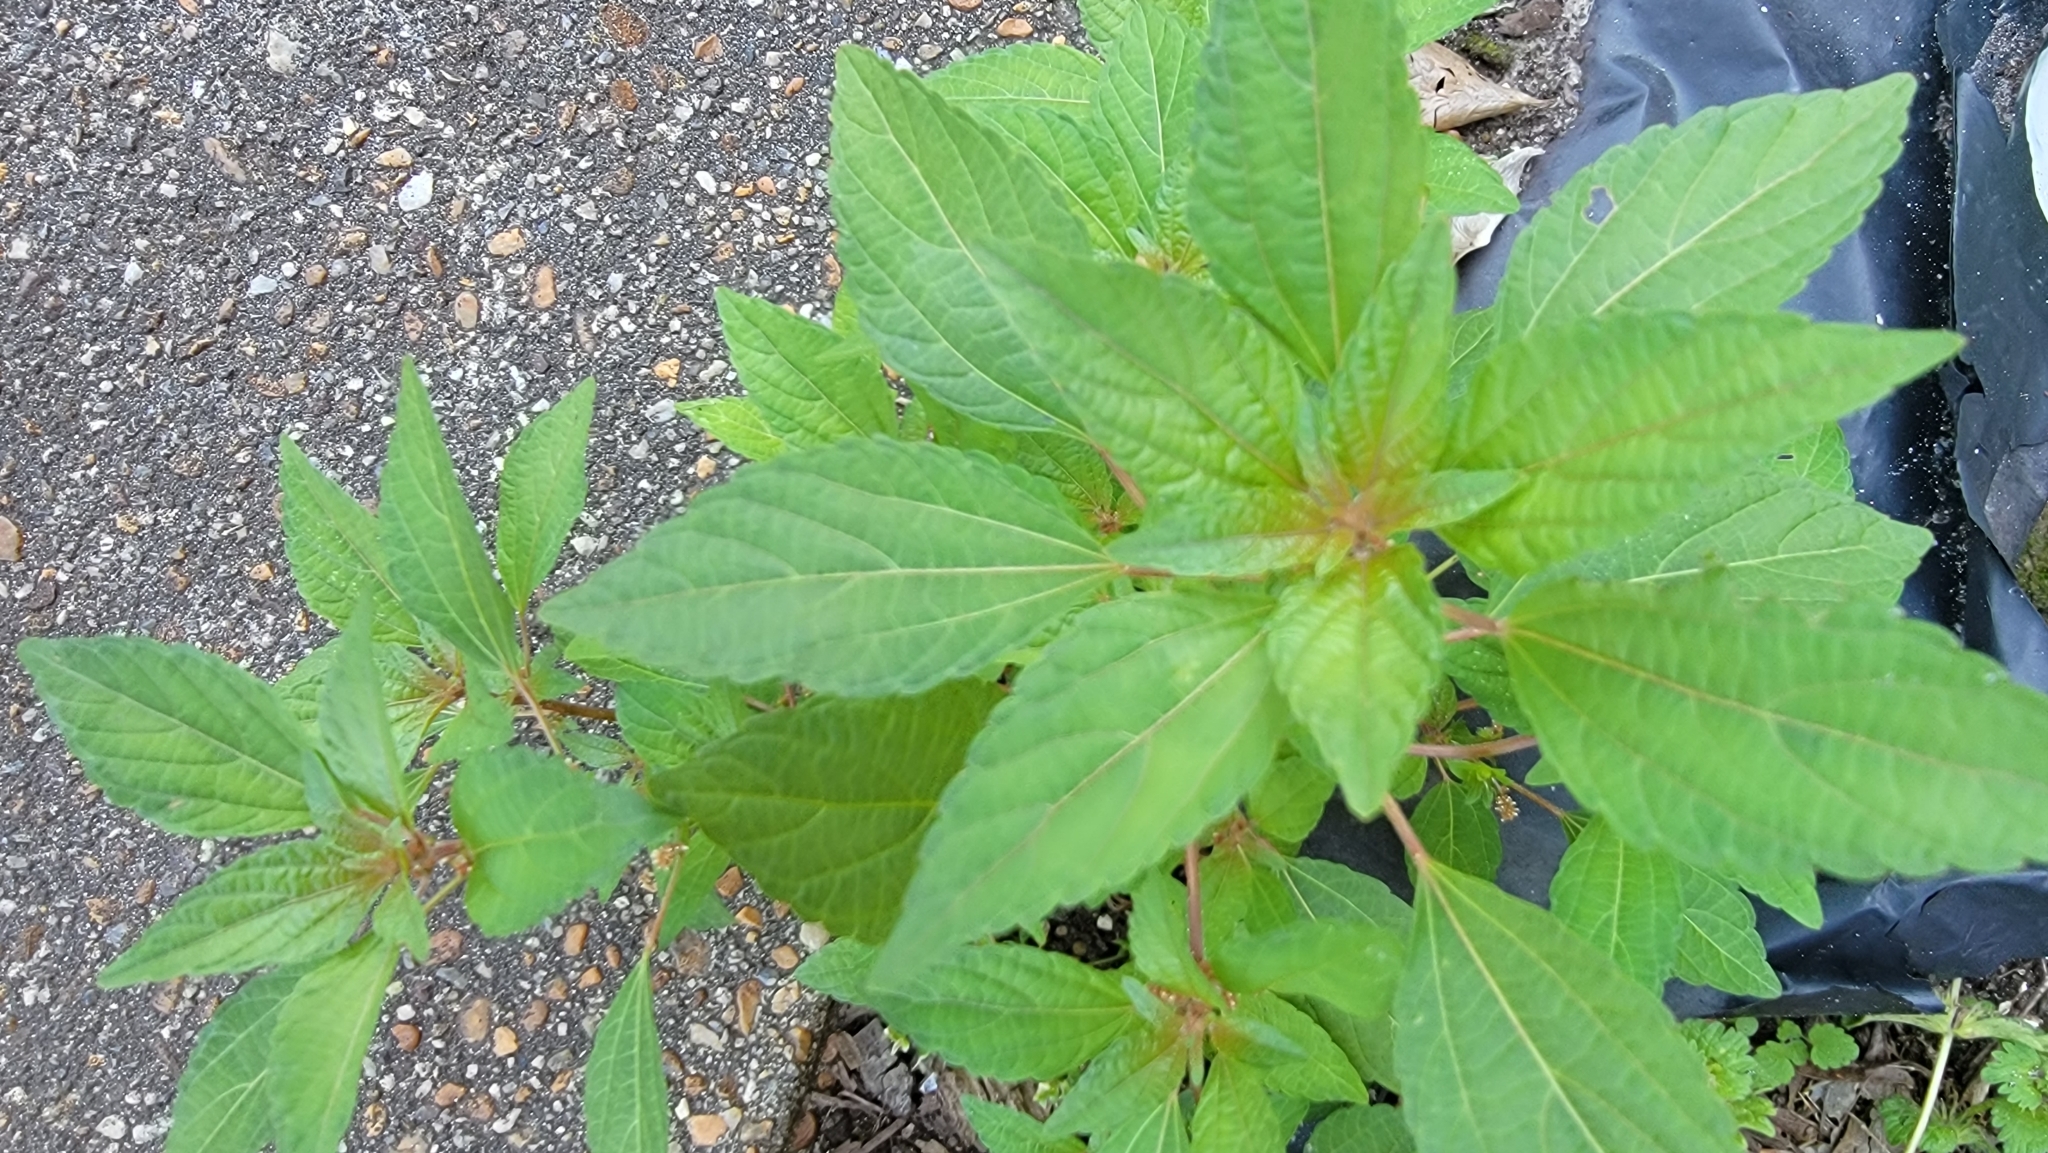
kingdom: Plantae
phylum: Tracheophyta
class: Magnoliopsida
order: Malpighiales
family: Euphorbiaceae
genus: Acalypha
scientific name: Acalypha rhomboidea
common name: Rhombic copperleaf
